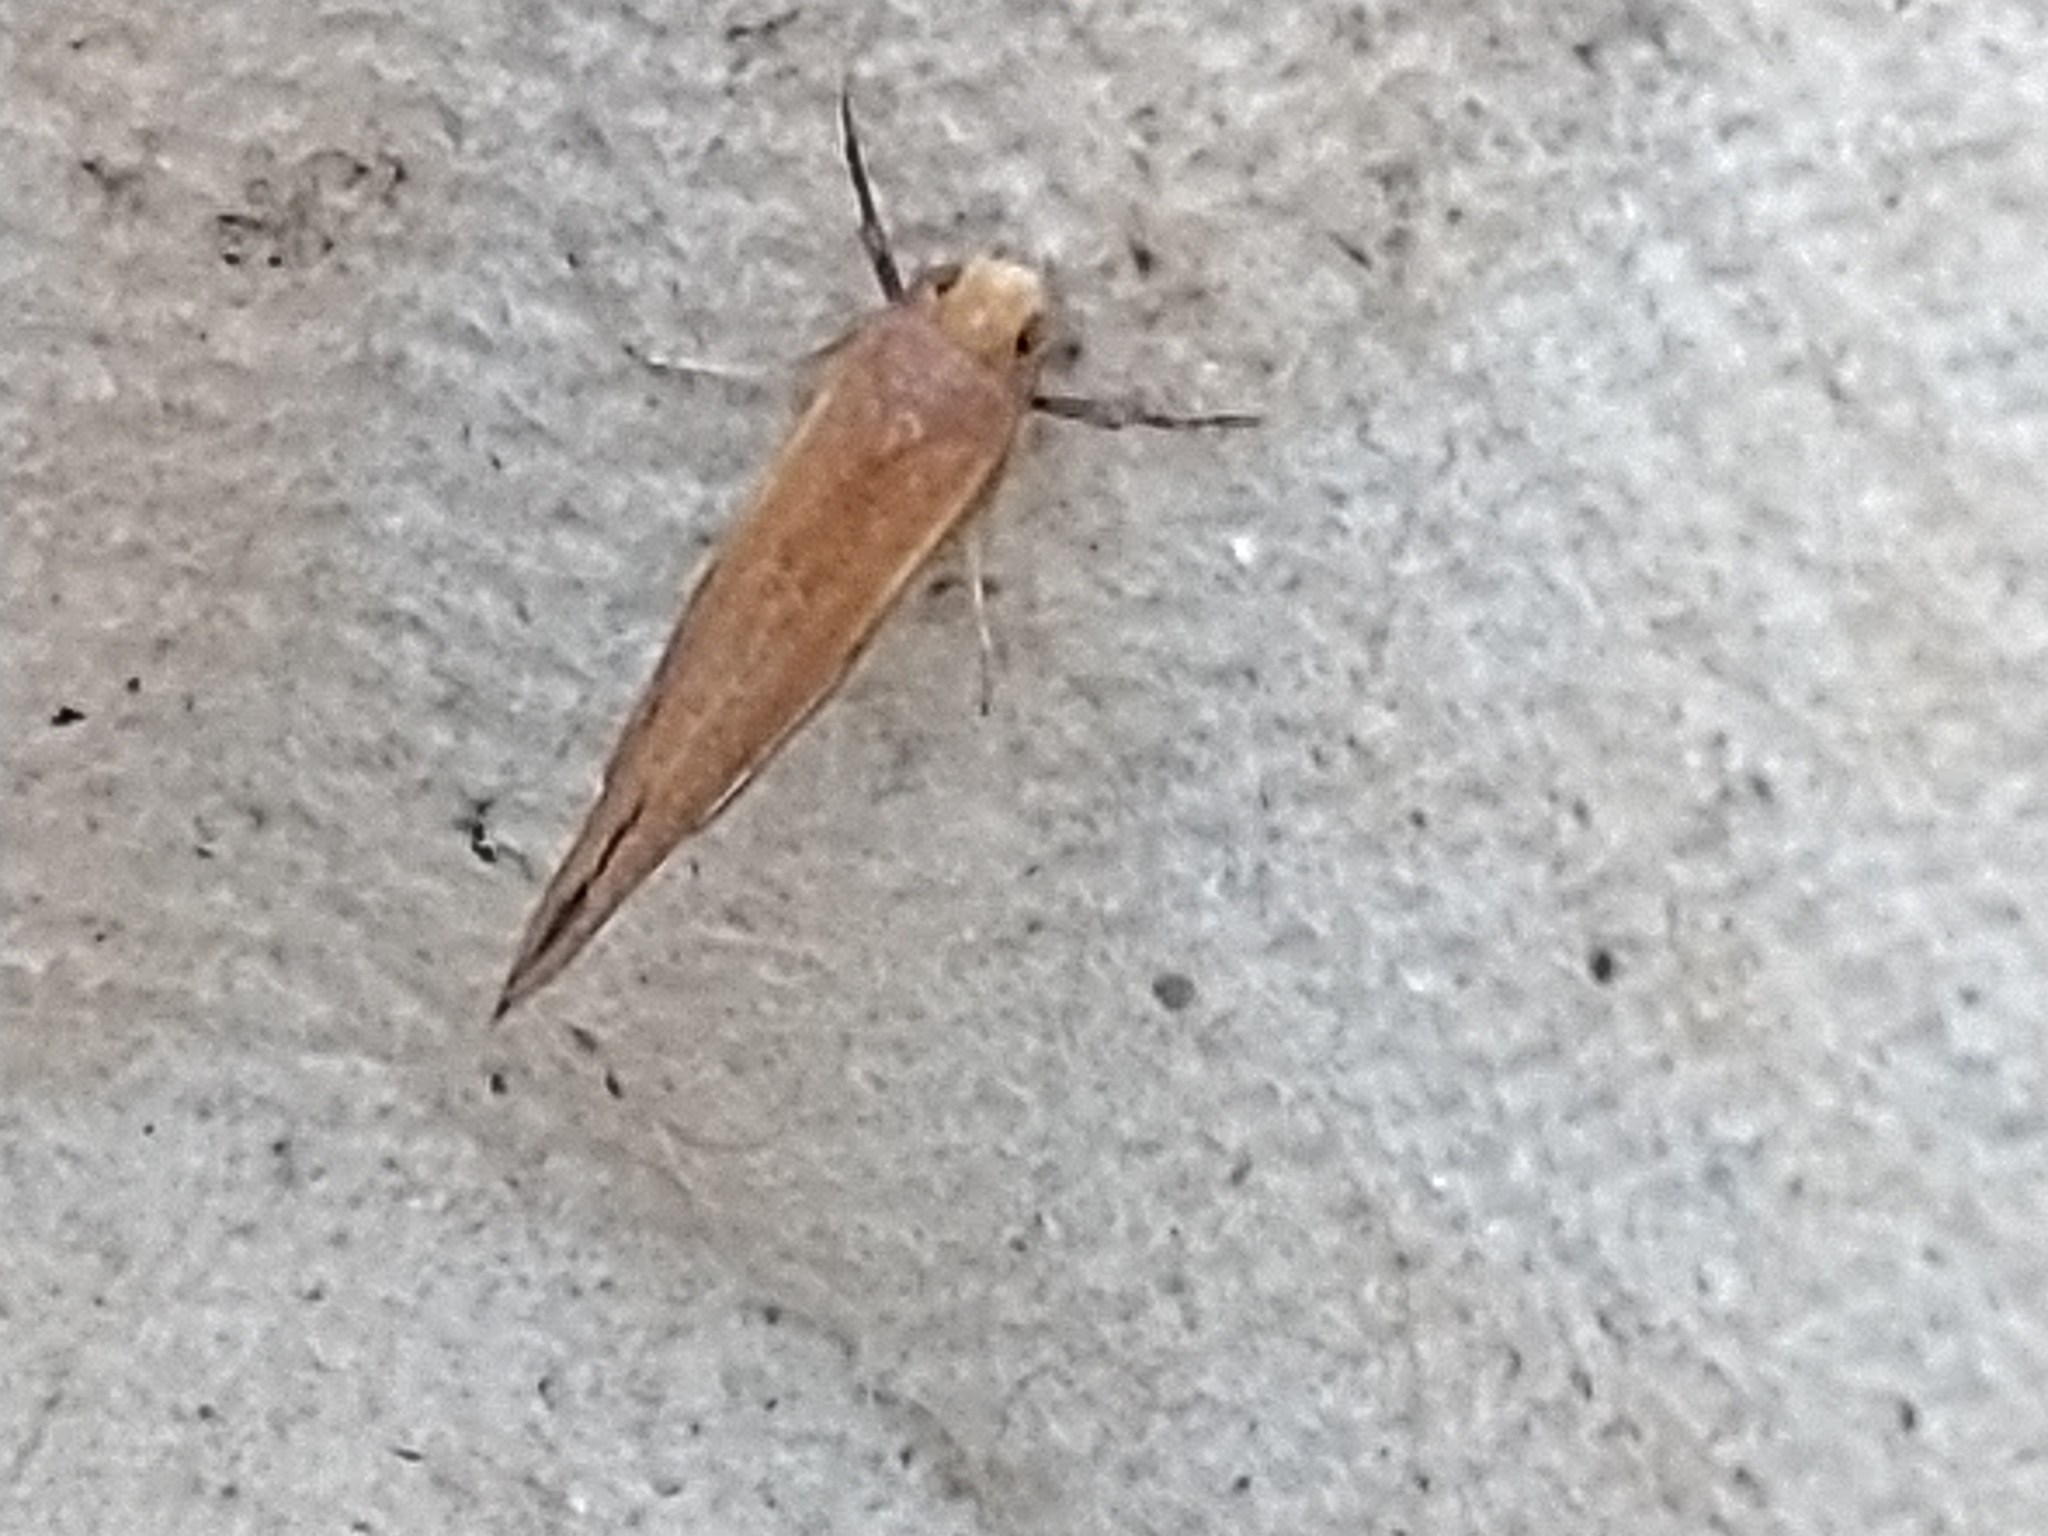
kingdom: Animalia
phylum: Arthropoda
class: Insecta
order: Lepidoptera
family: Yponomeutidae
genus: Zelleria
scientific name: Zelleria hepariella
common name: Brown ash ermine
